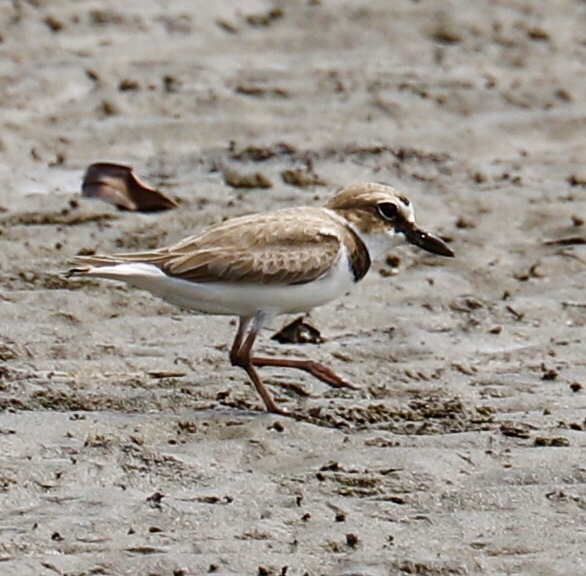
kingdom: Animalia
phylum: Chordata
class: Aves
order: Charadriiformes
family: Charadriidae
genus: Anarhynchus
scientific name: Anarhynchus
